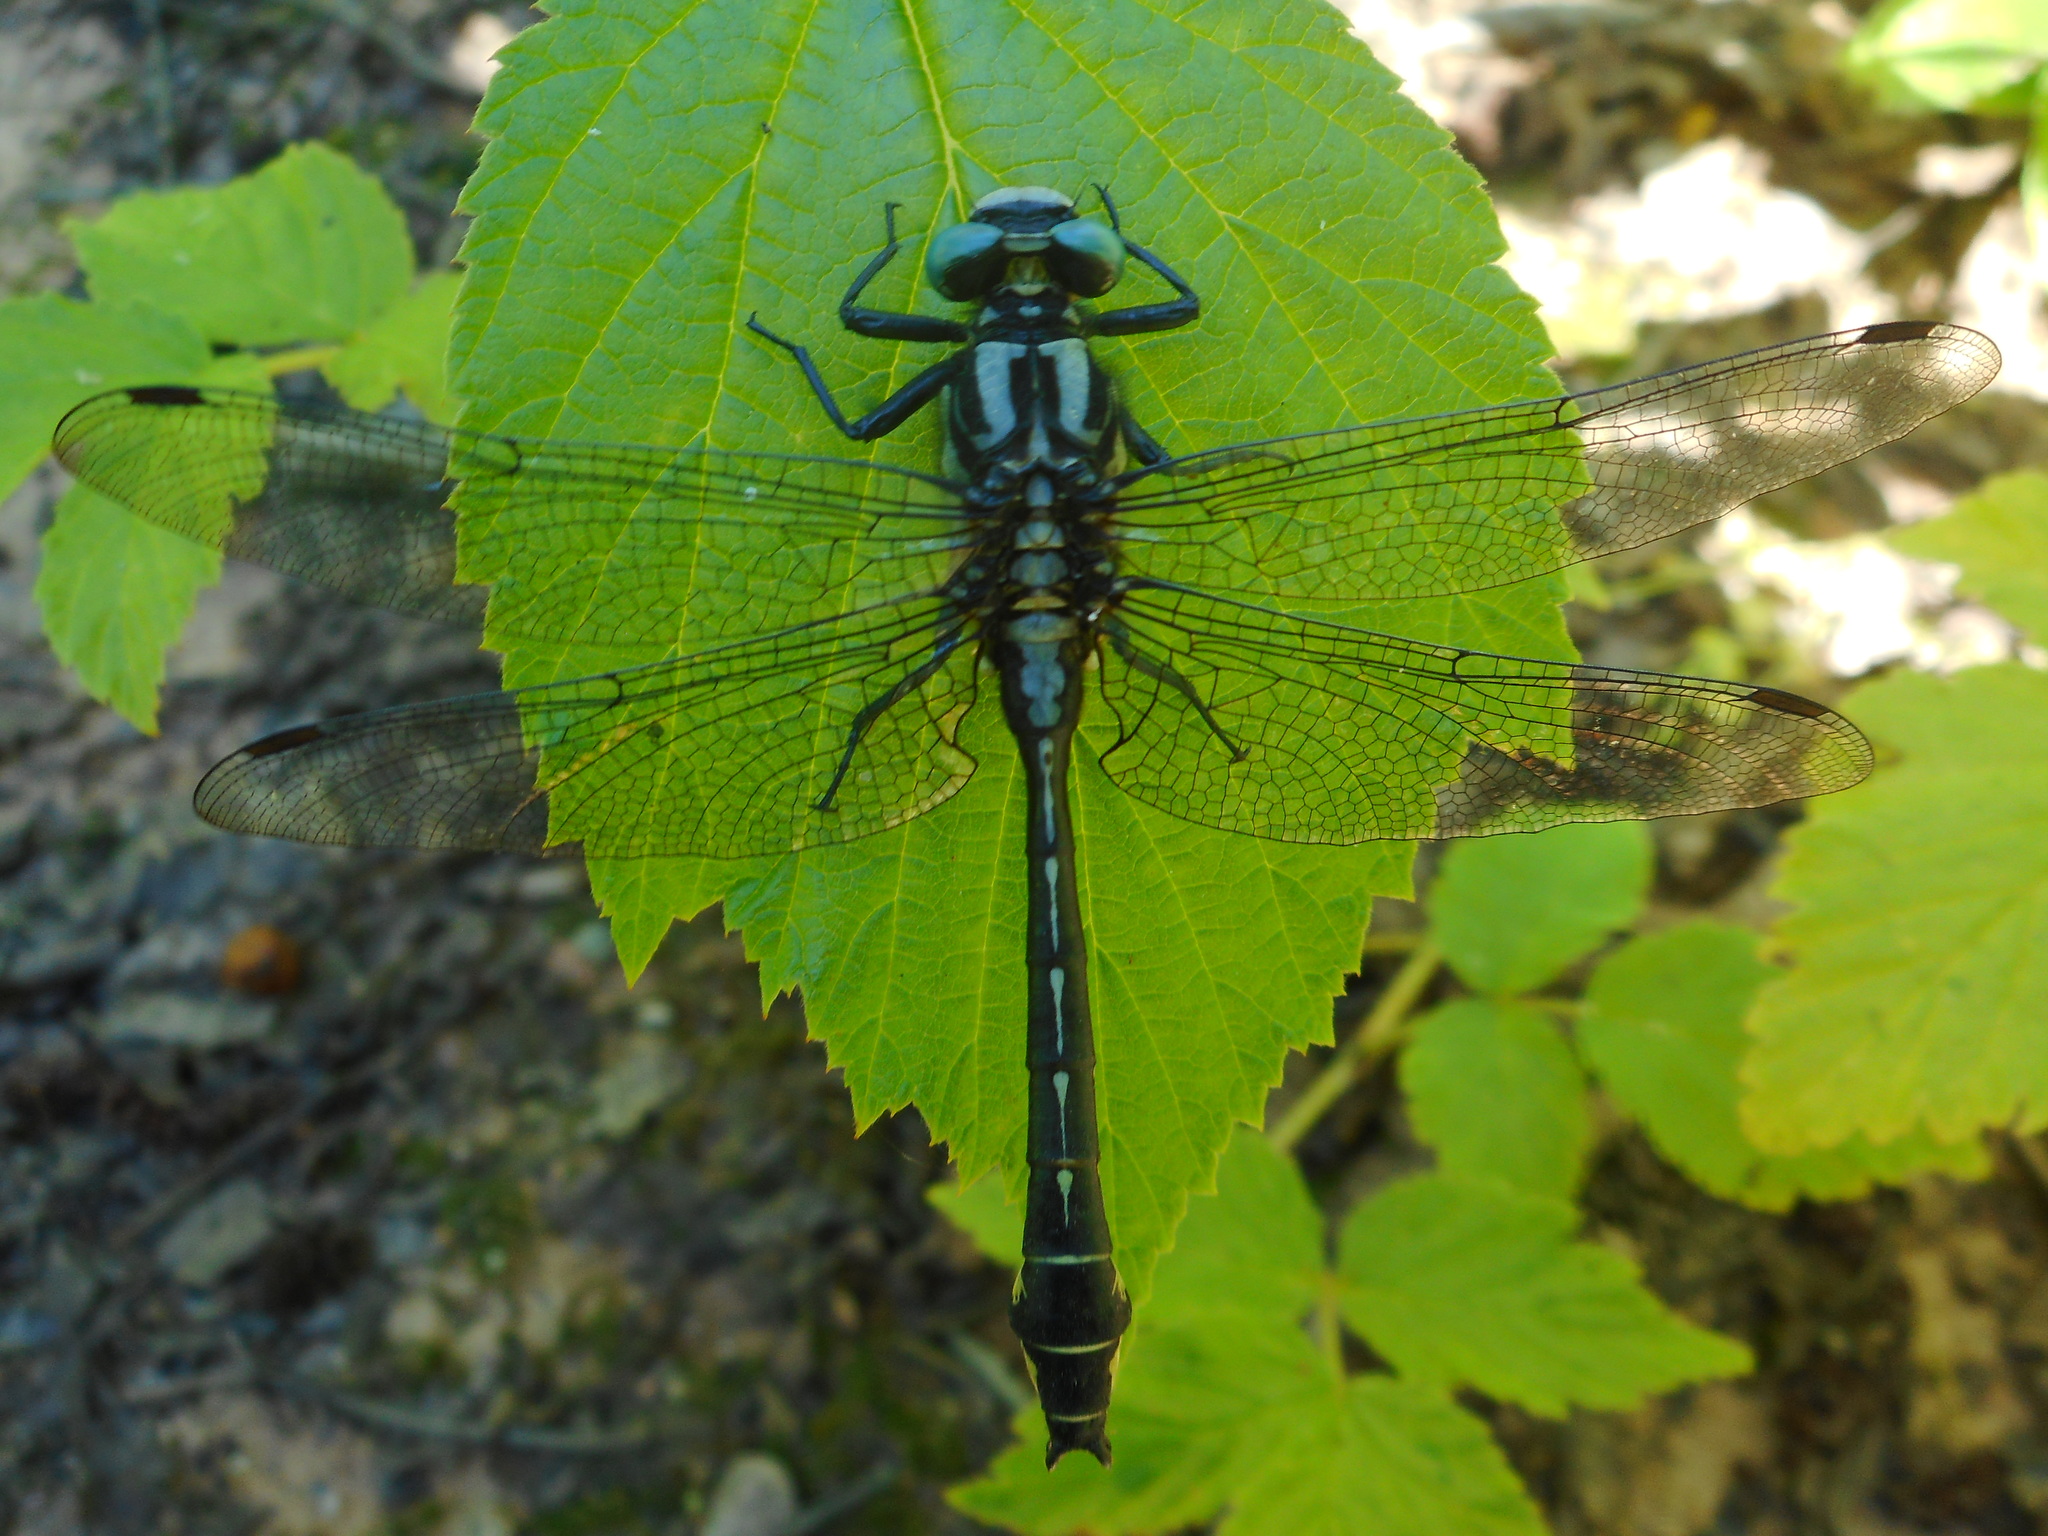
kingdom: Animalia
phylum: Arthropoda
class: Insecta
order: Odonata
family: Gomphidae
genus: Gomphus
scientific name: Gomphus vulgatissimus
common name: Club-tailed dragonfly
